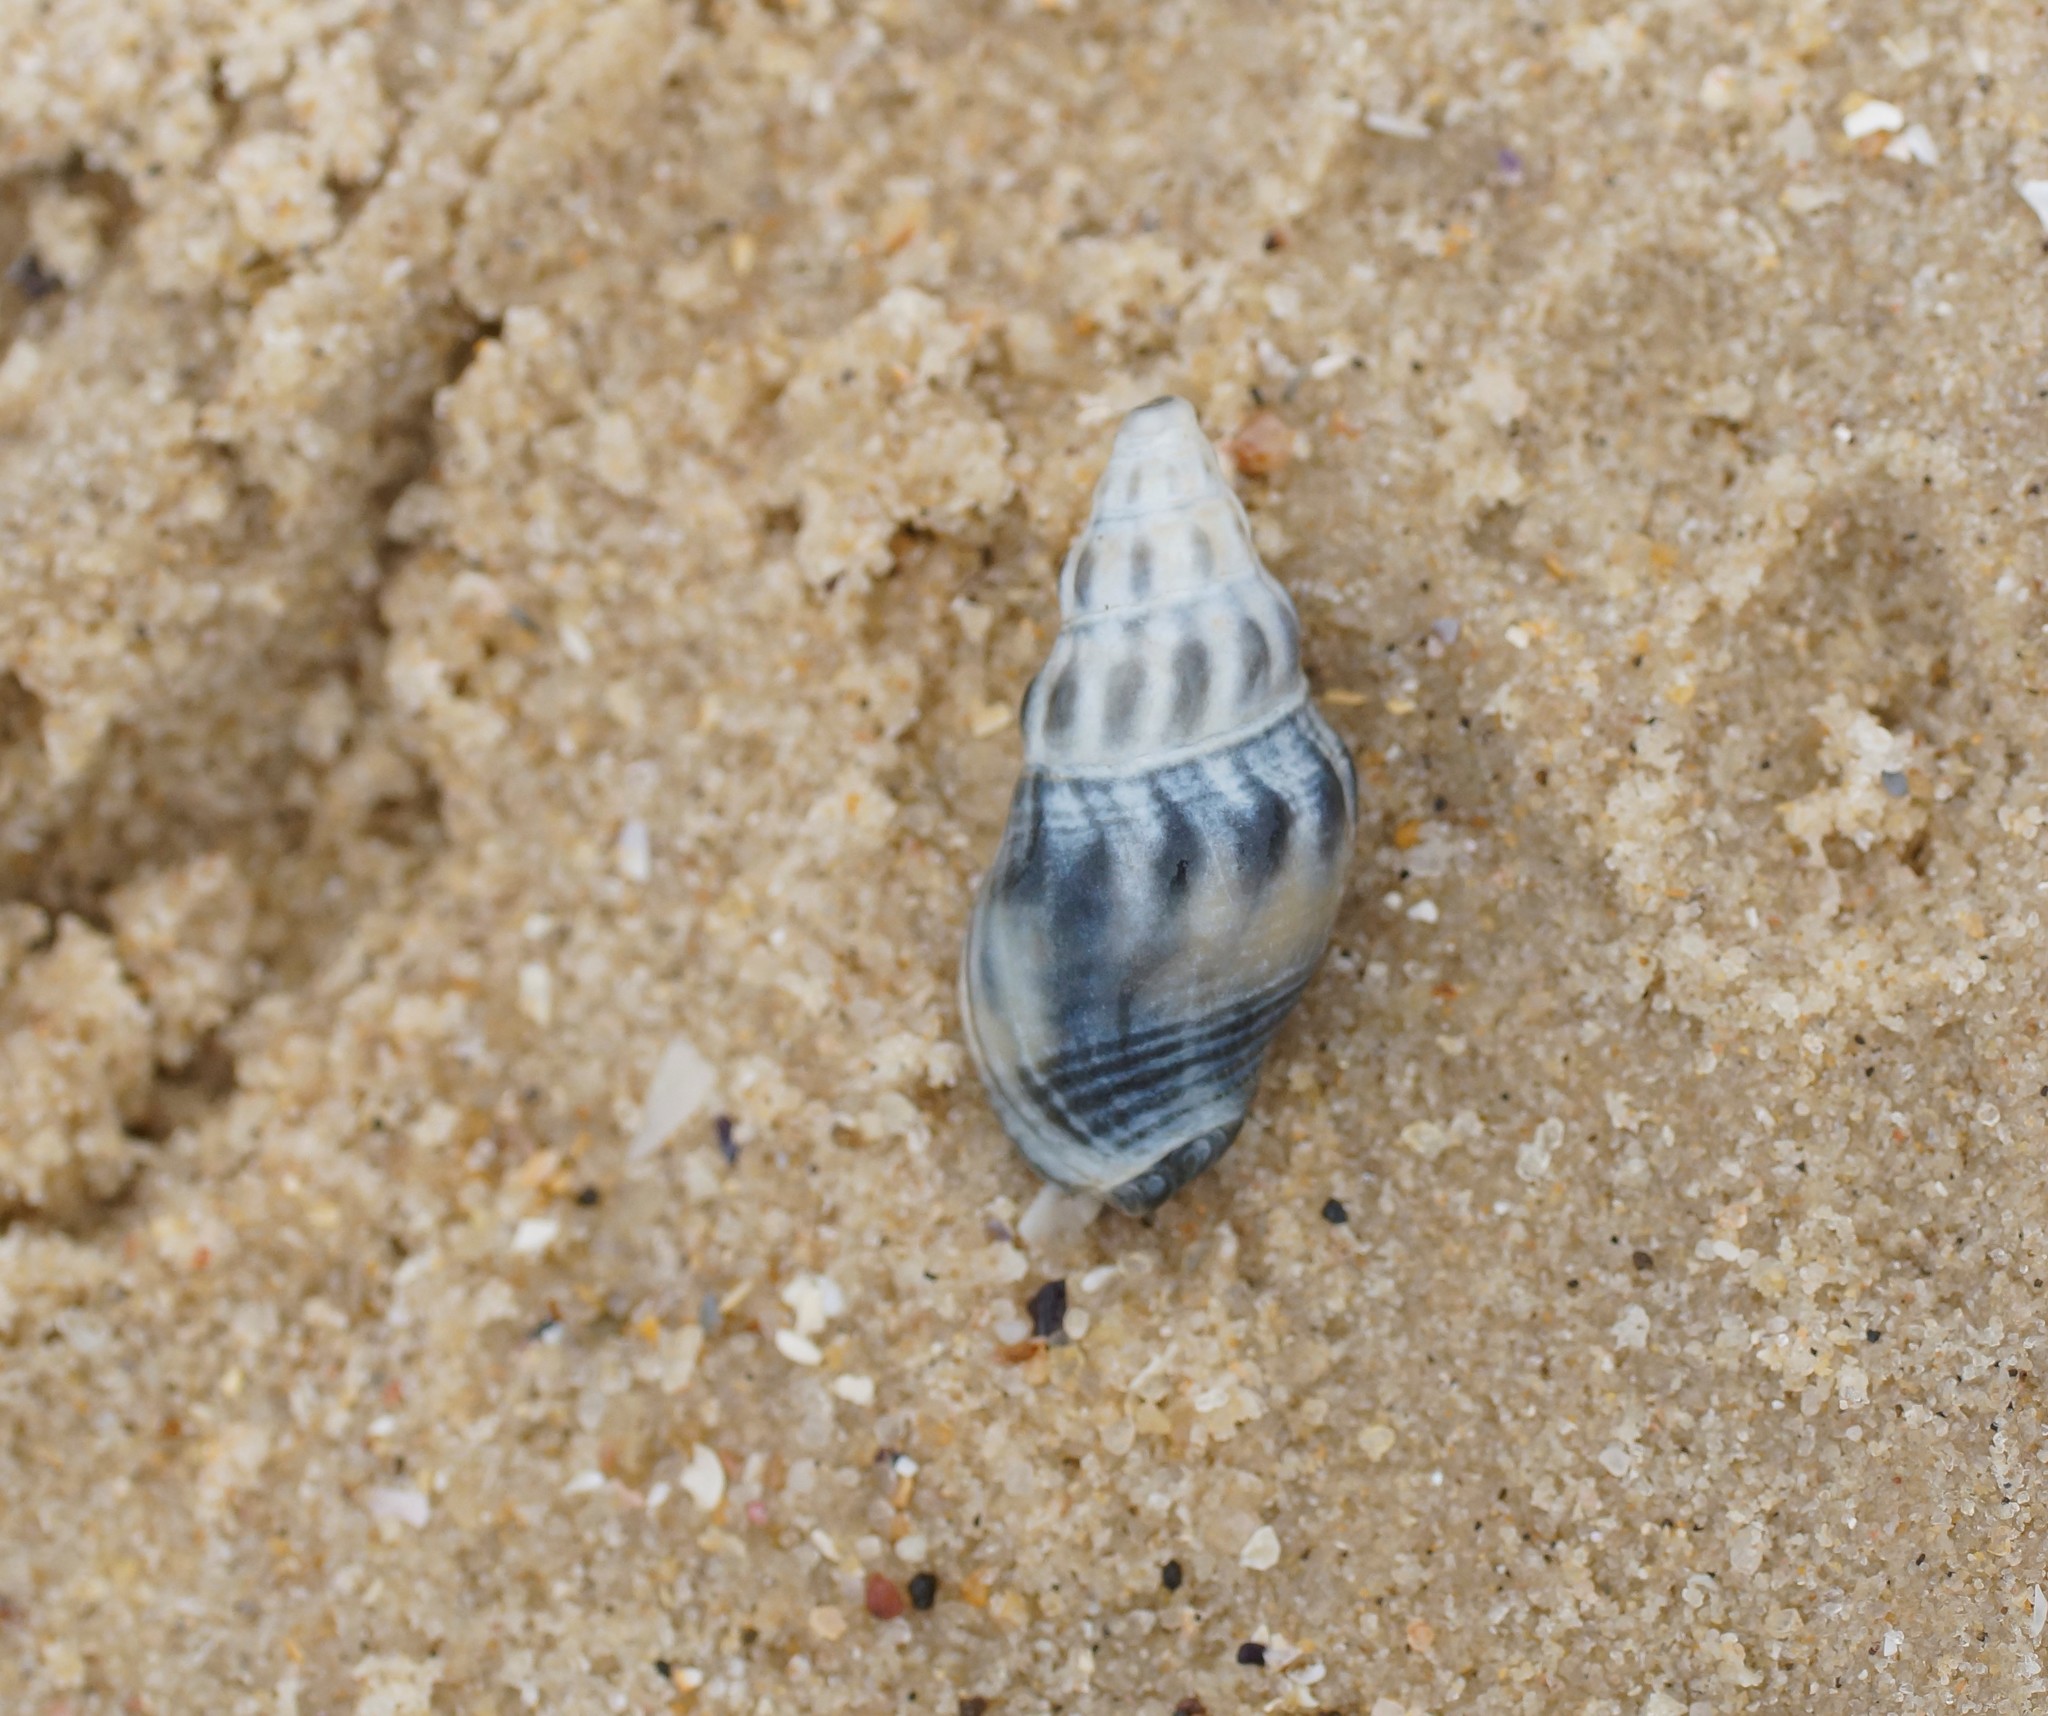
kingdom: Animalia
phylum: Mollusca
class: Gastropoda
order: Neogastropoda
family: Cominellidae
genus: Cominella
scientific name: Cominella eburnea
